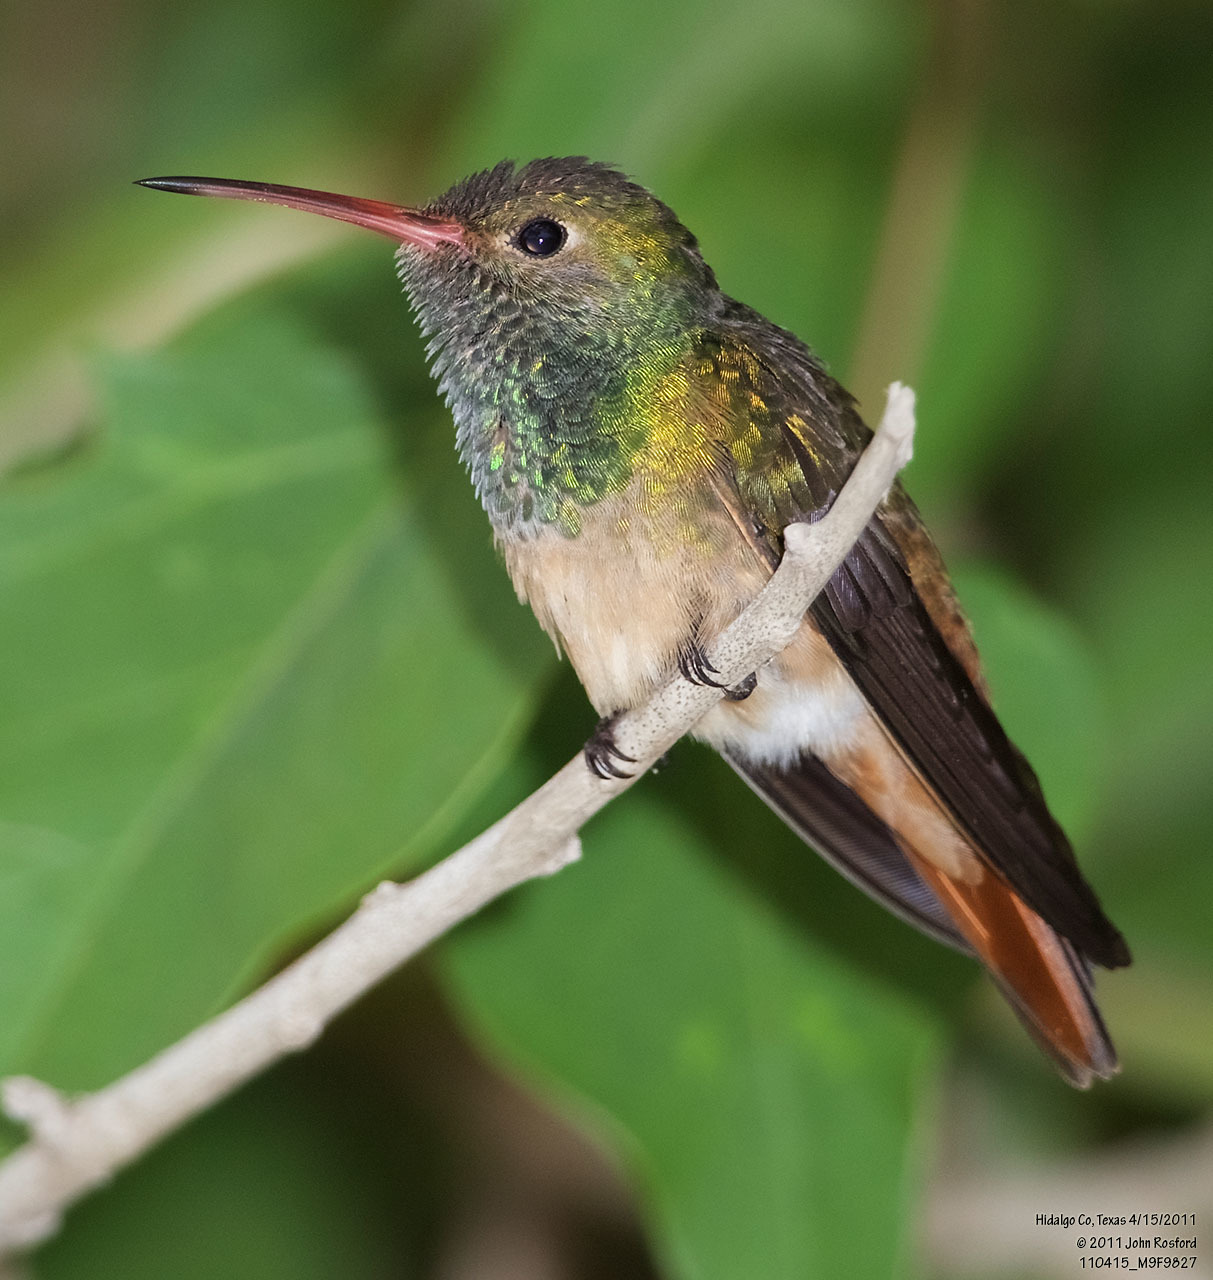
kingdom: Animalia
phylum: Chordata
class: Aves
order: Apodiformes
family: Trochilidae
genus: Amazilia
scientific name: Amazilia yucatanensis
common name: Buff-bellied hummingbird
